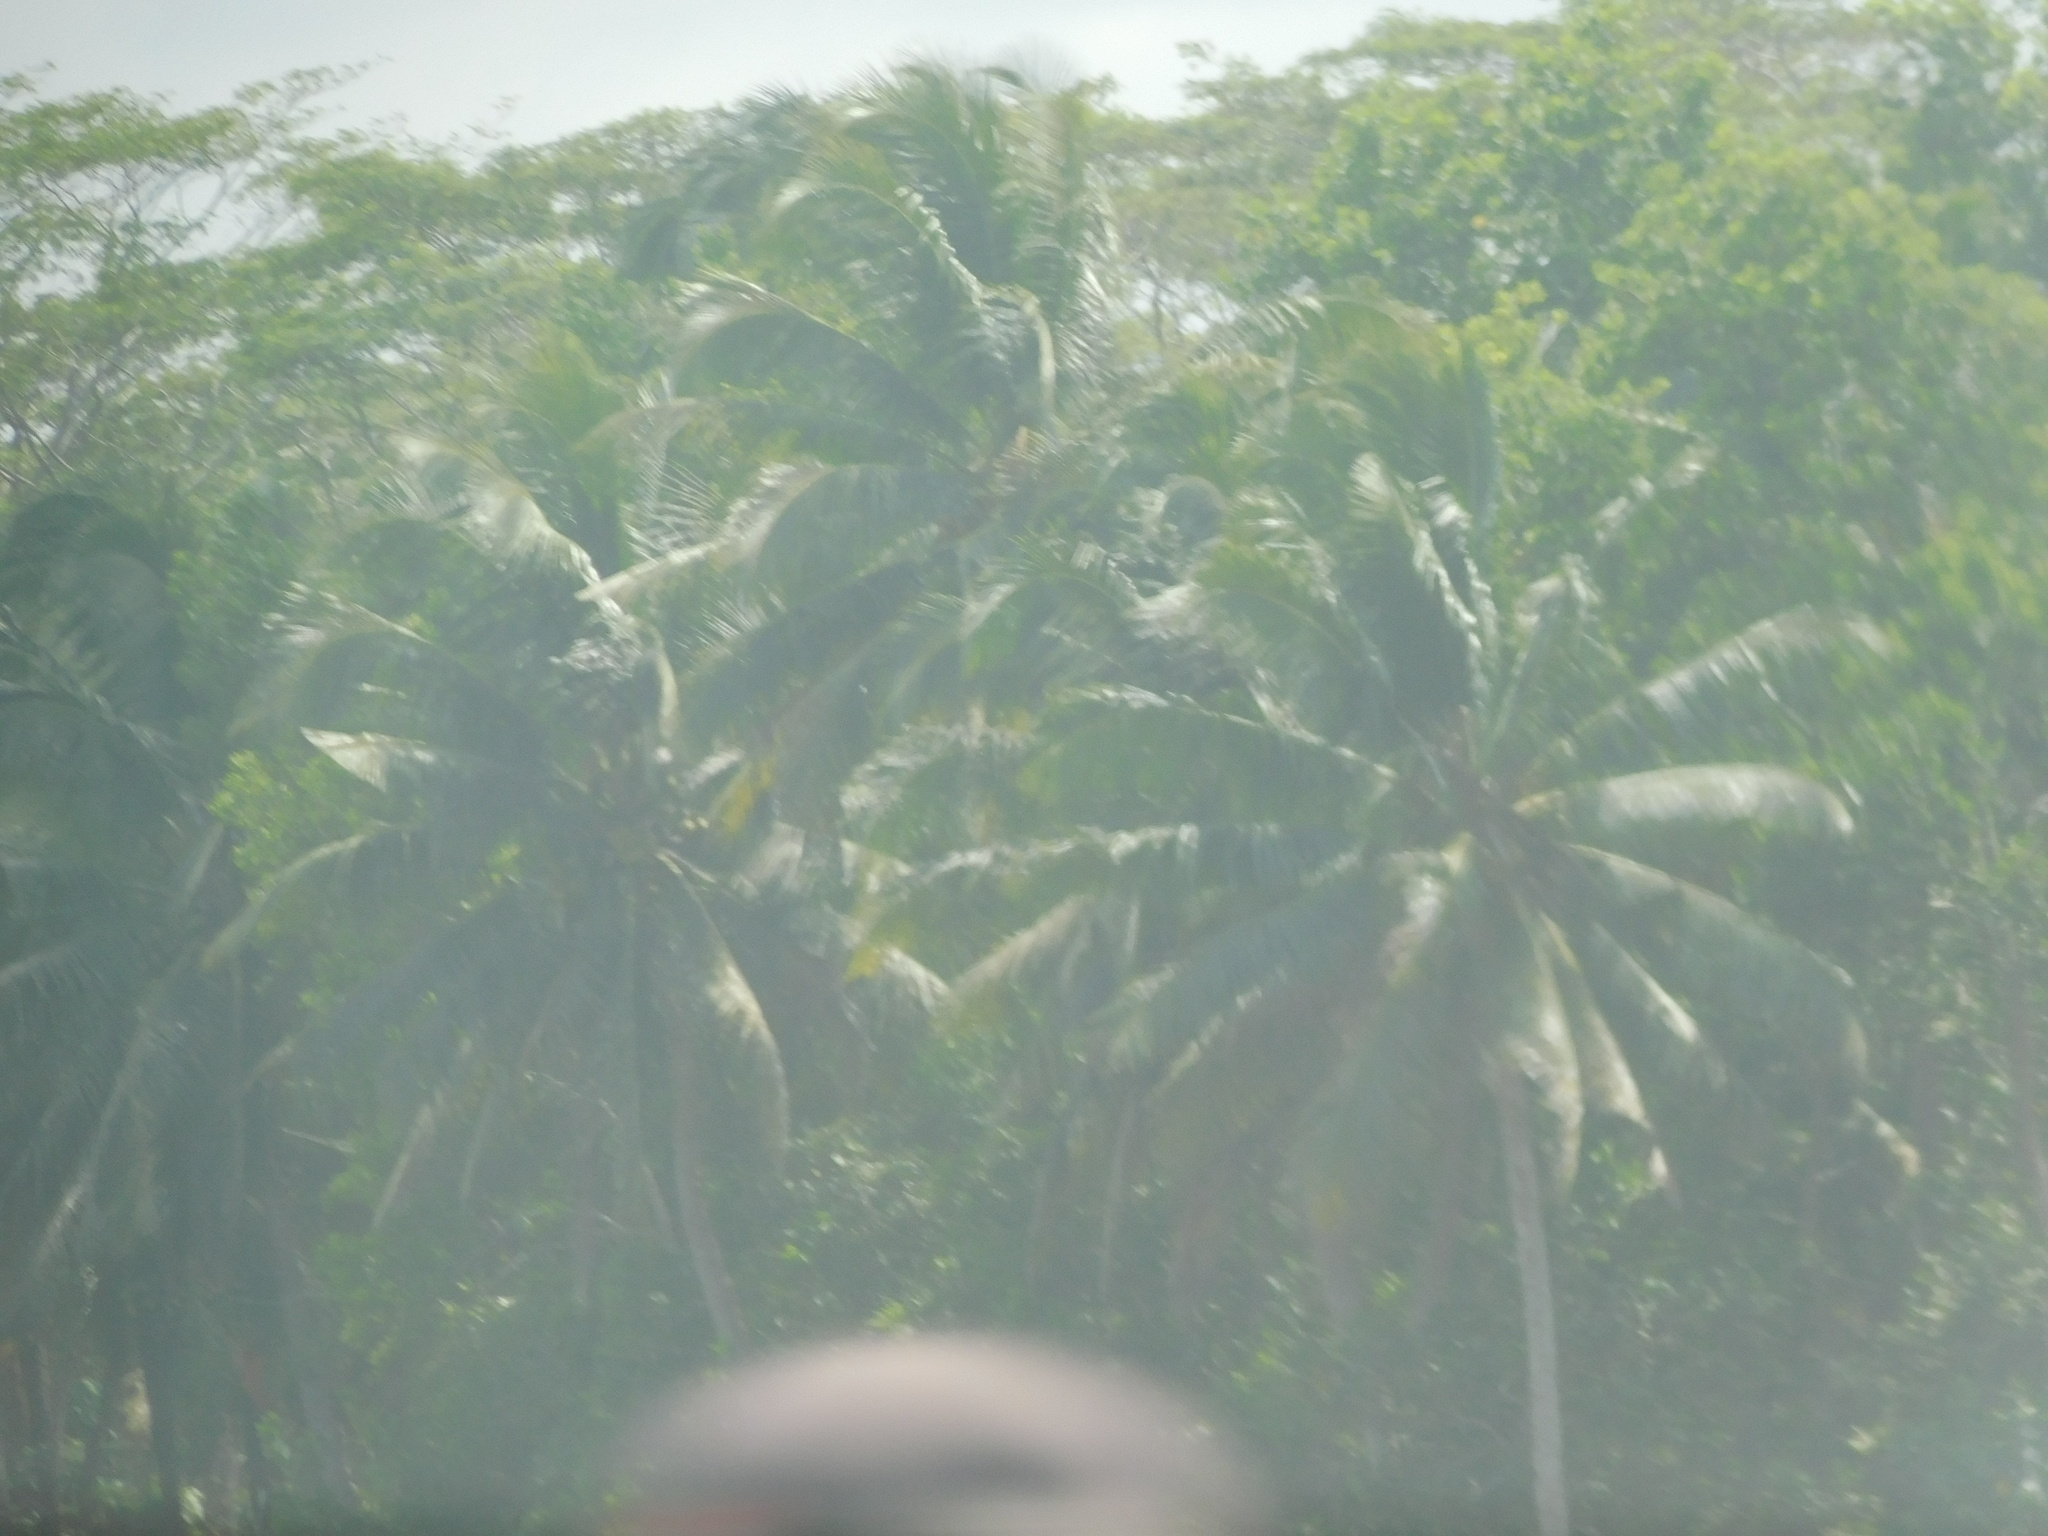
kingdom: Plantae
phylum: Tracheophyta
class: Liliopsida
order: Arecales
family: Arecaceae
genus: Cocos
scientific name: Cocos nucifera
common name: Coconut palm
